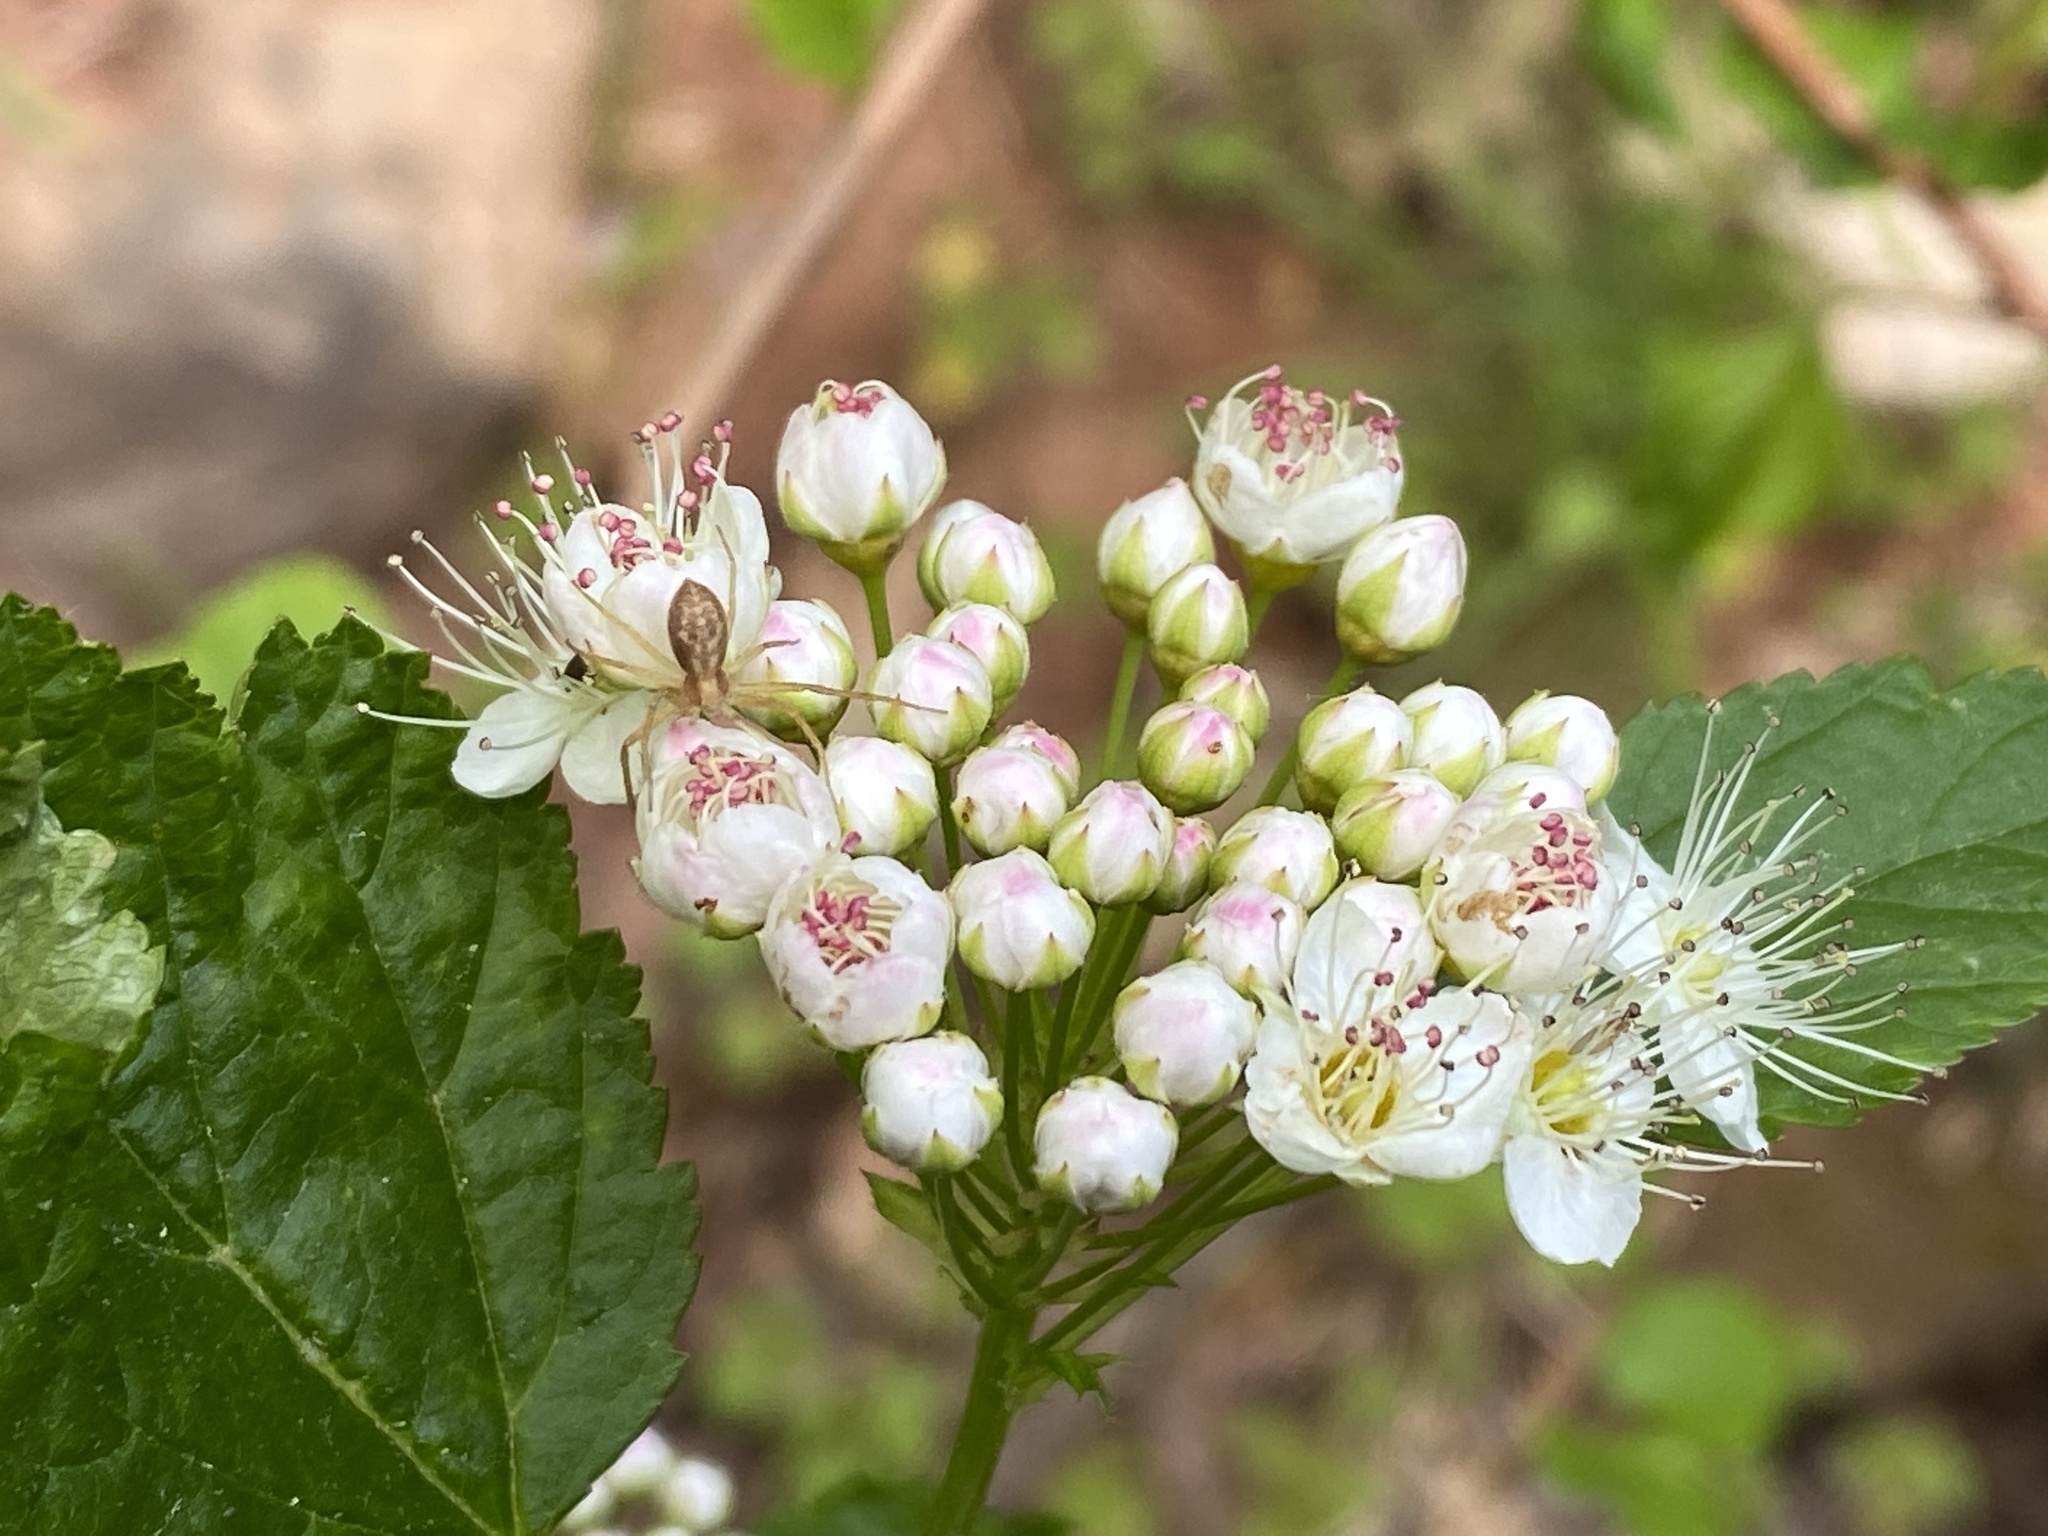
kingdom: Plantae
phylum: Tracheophyta
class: Magnoliopsida
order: Rosales
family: Rosaceae
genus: Physocarpus
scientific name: Physocarpus opulifolius
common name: Ninebark
